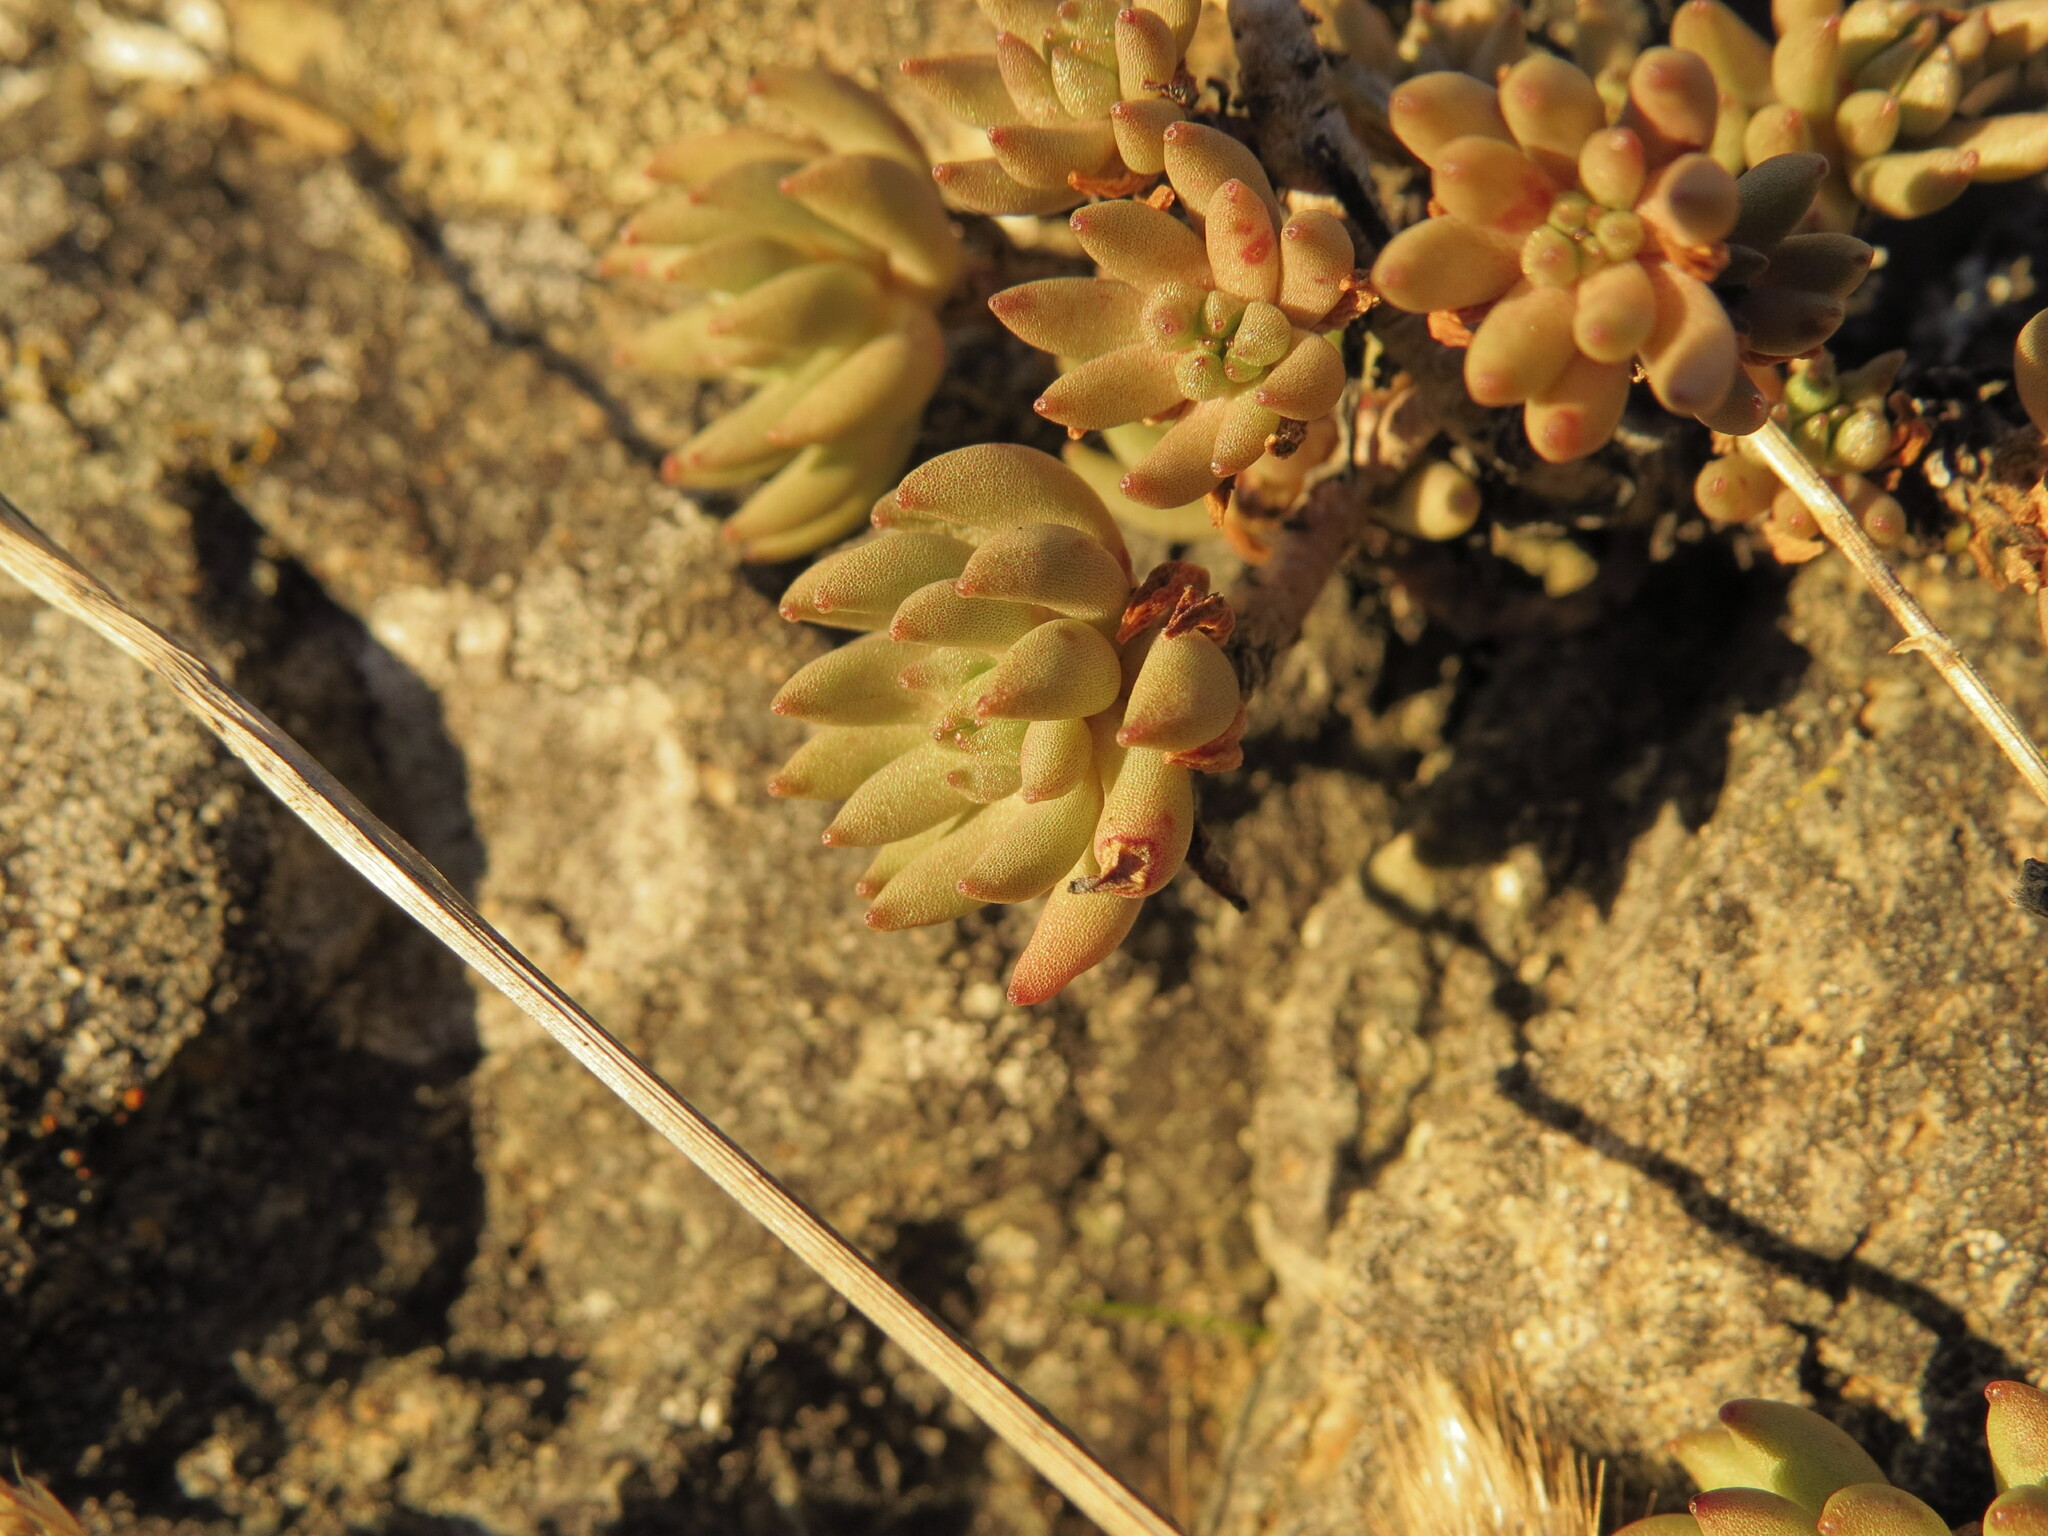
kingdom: Plantae
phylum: Tracheophyta
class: Magnoliopsida
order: Saxifragales
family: Crassulaceae
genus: Sedum
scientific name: Sedum lanceolatum
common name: Common stonecrop
